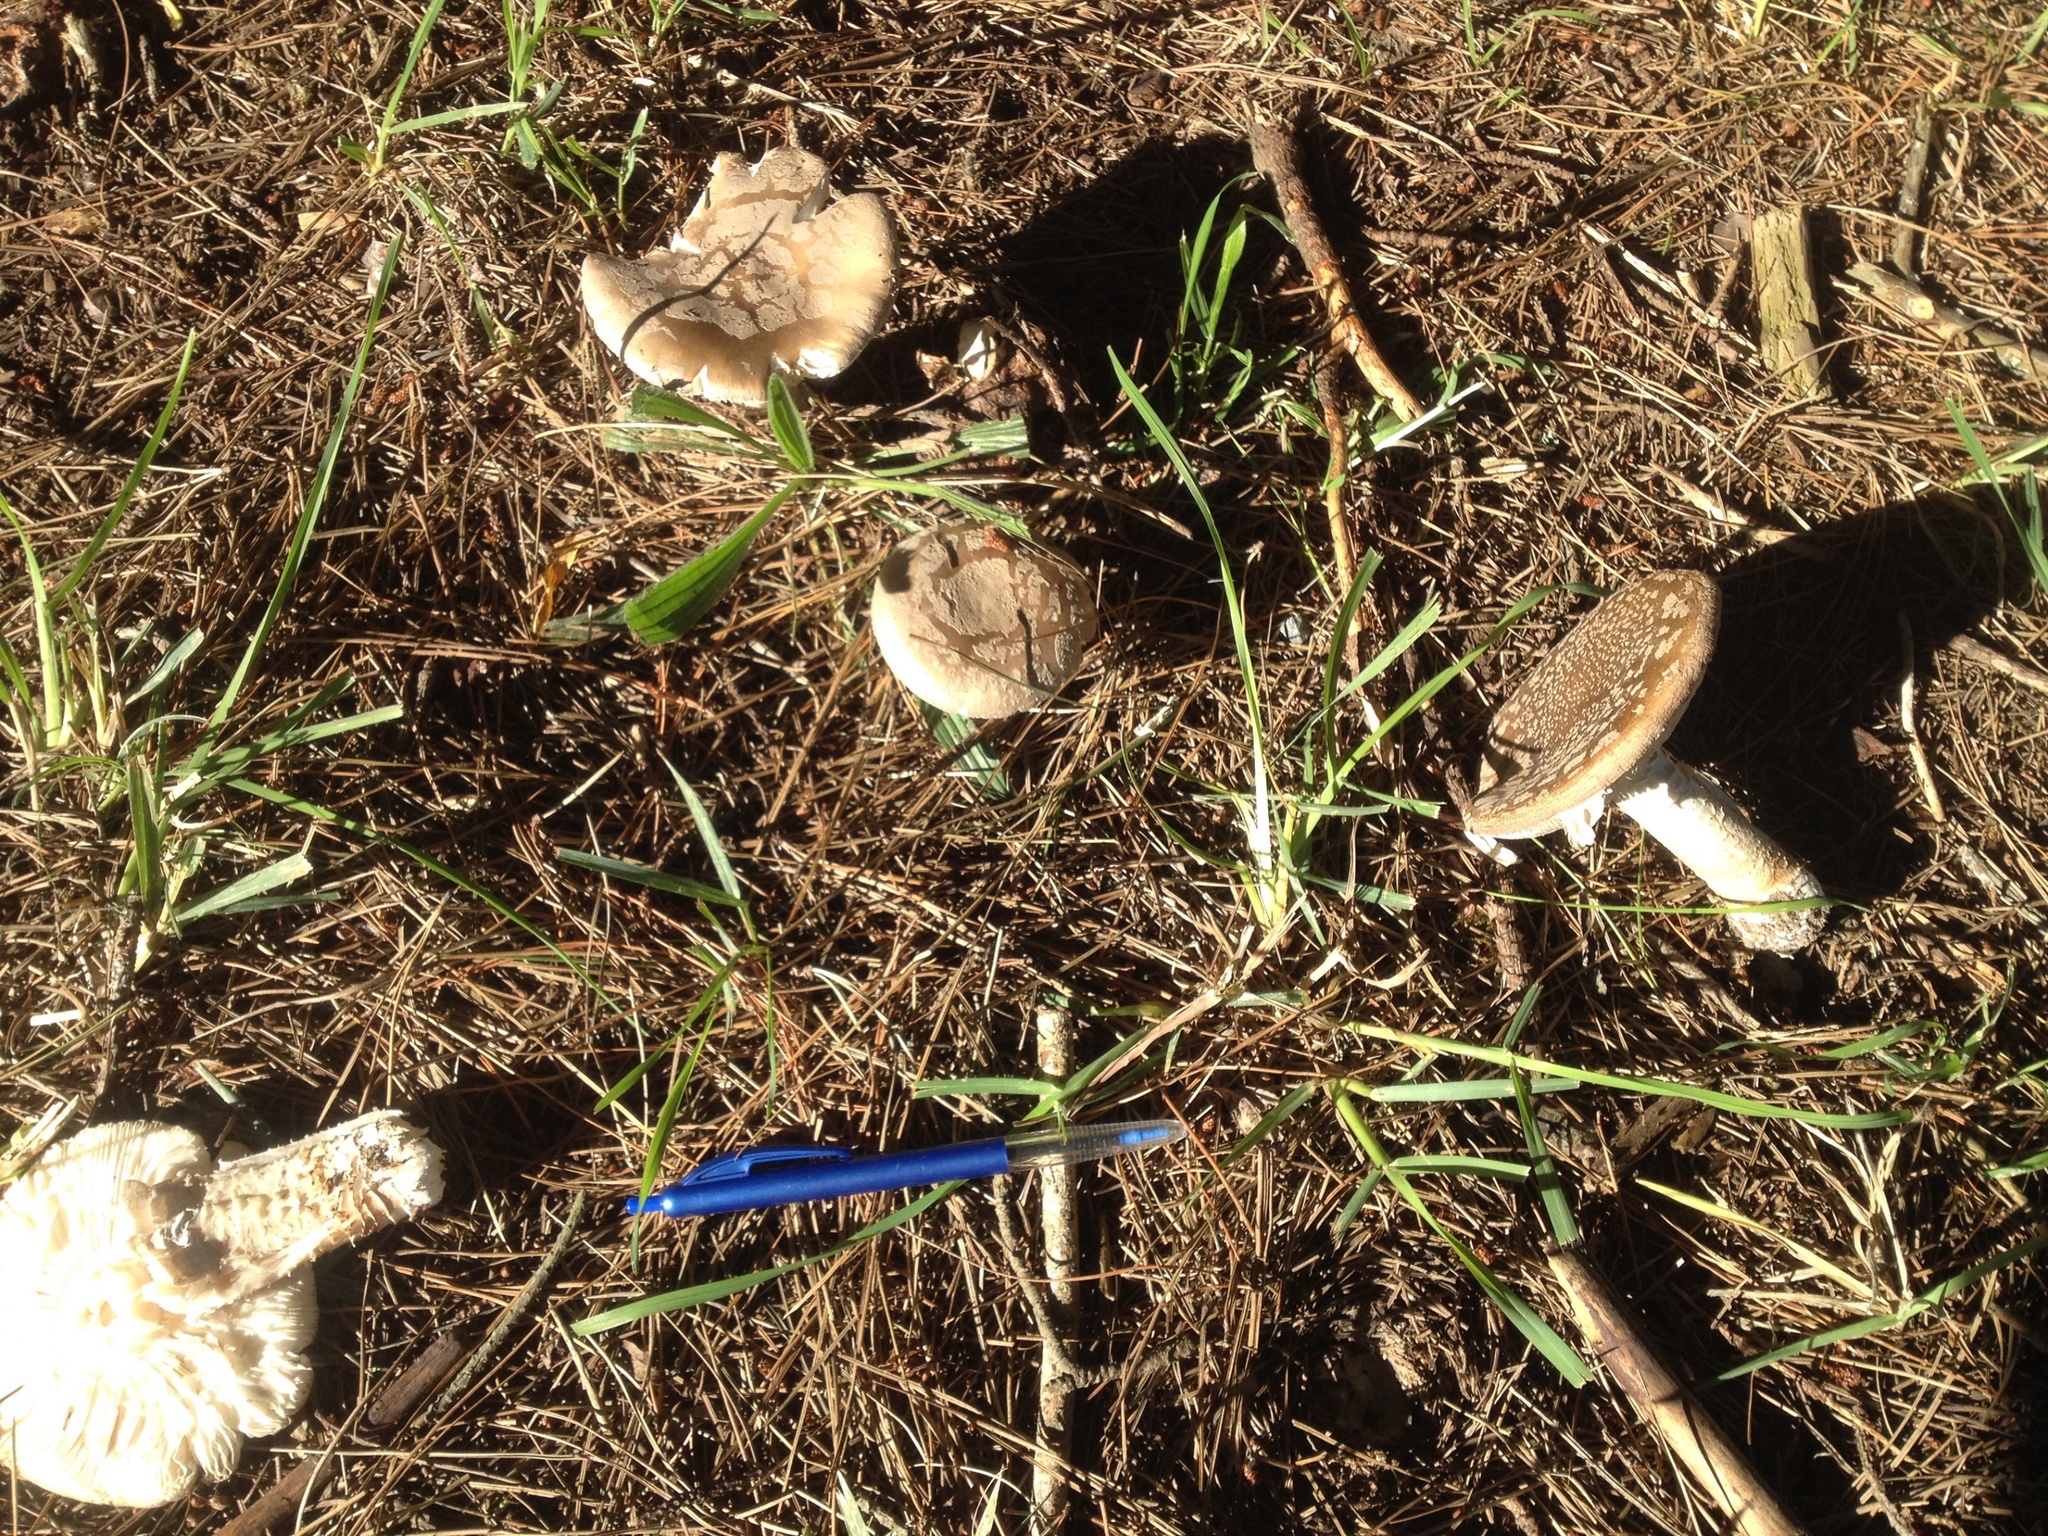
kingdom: Fungi
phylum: Basidiomycota
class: Agaricomycetes
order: Agaricales
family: Amanitaceae
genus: Amanita
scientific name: Amanita excelsa
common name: European false blusher
